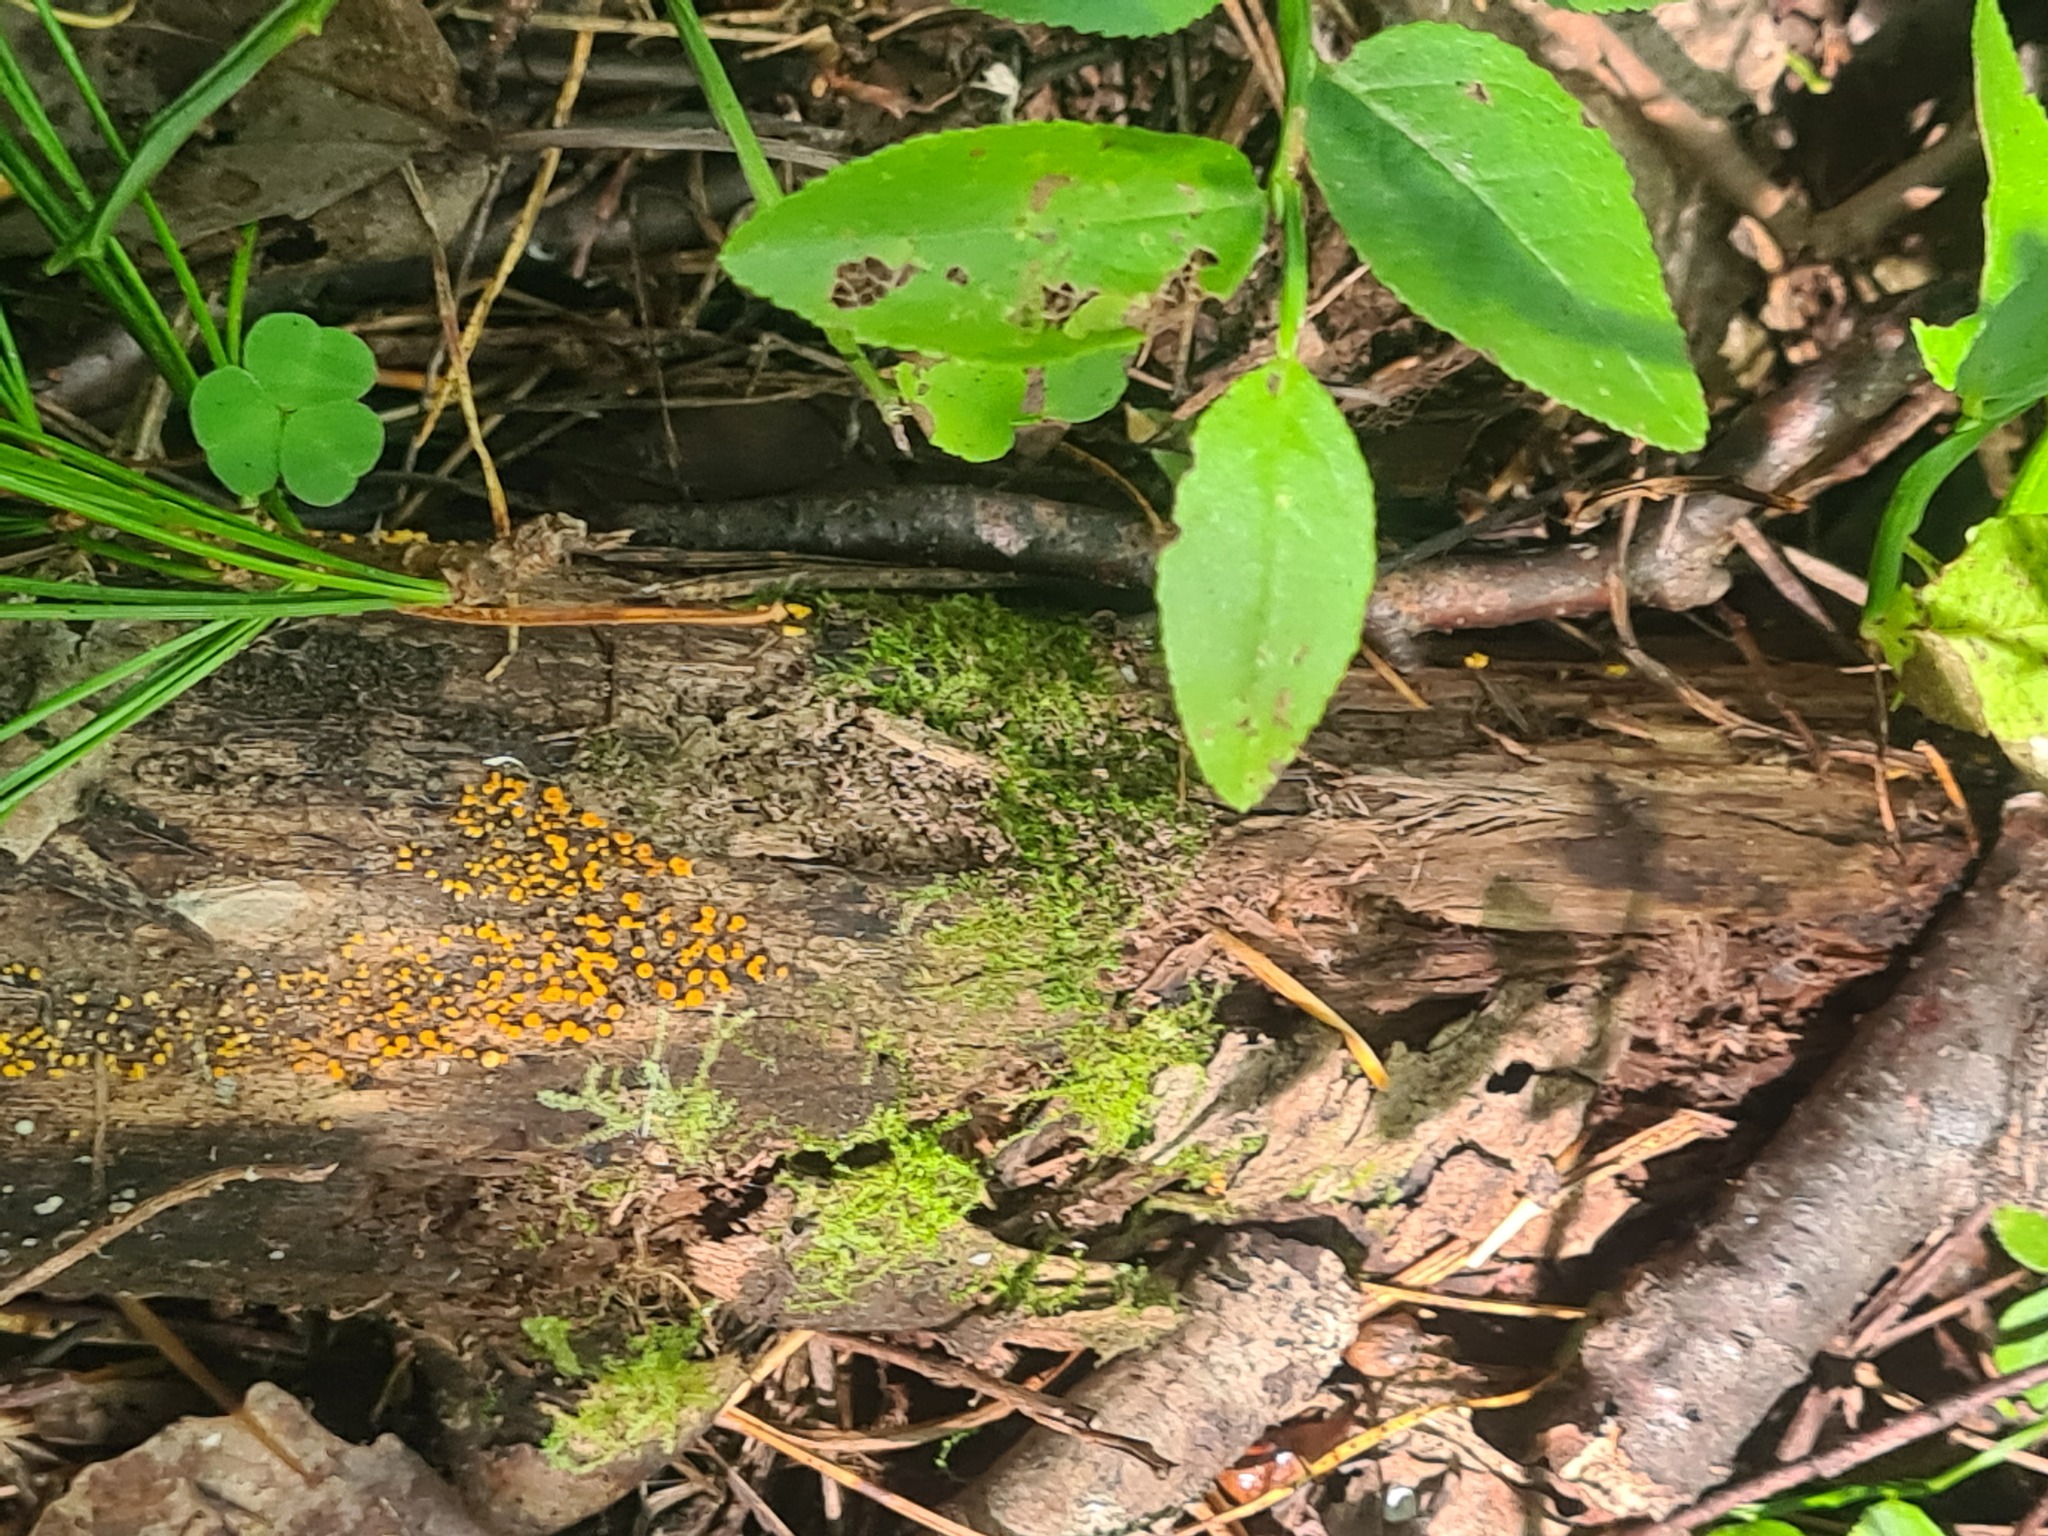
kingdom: Fungi
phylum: Ascomycota
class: Leotiomycetes
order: Helotiales
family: Pezizellaceae
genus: Calycina
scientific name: Calycina citrina
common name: Yellow fairy cups
